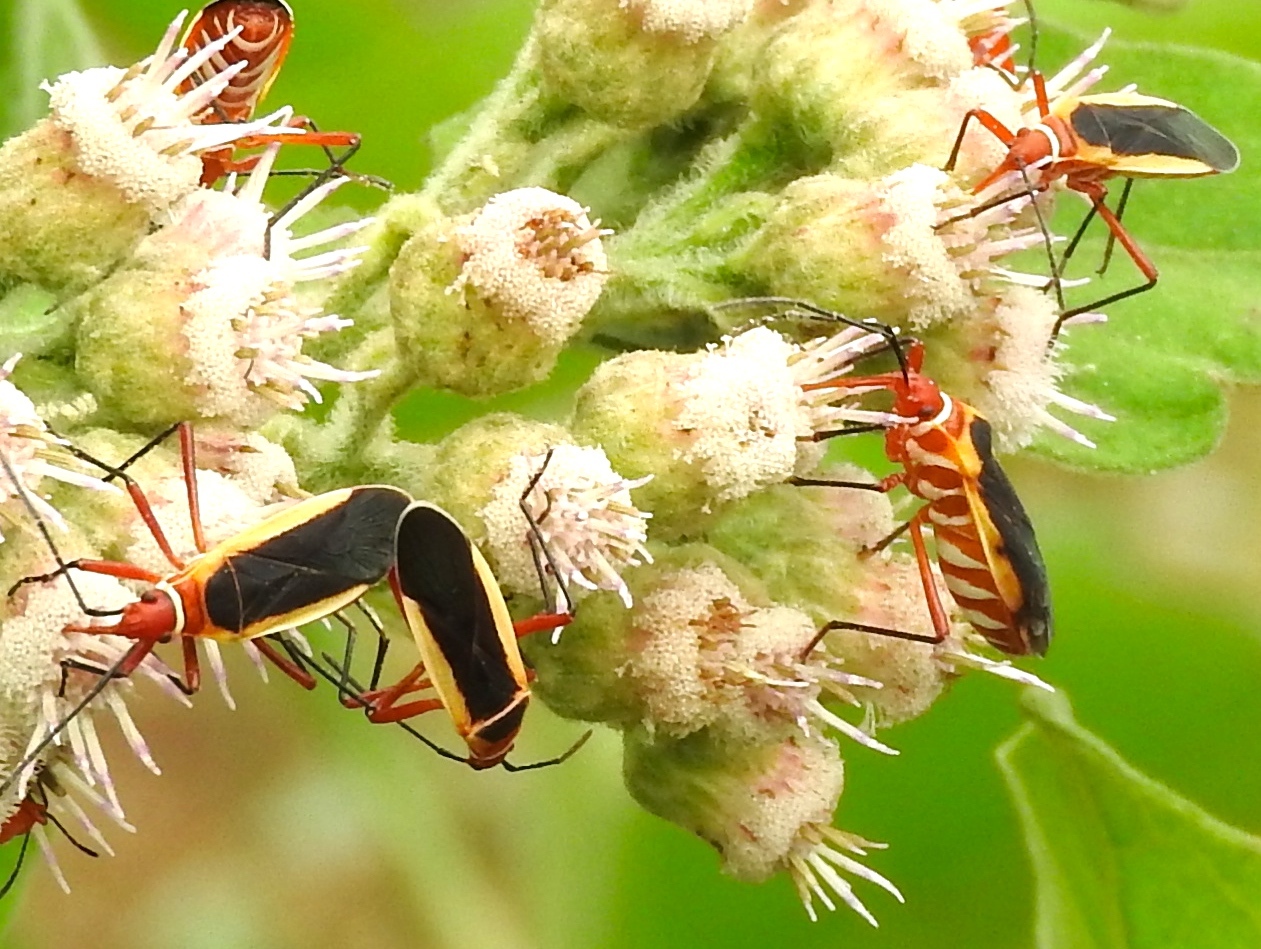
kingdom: Animalia
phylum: Arthropoda
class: Insecta
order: Hemiptera
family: Pyrrhocoridae
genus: Dysdercus
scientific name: Dysdercus obscuratus
